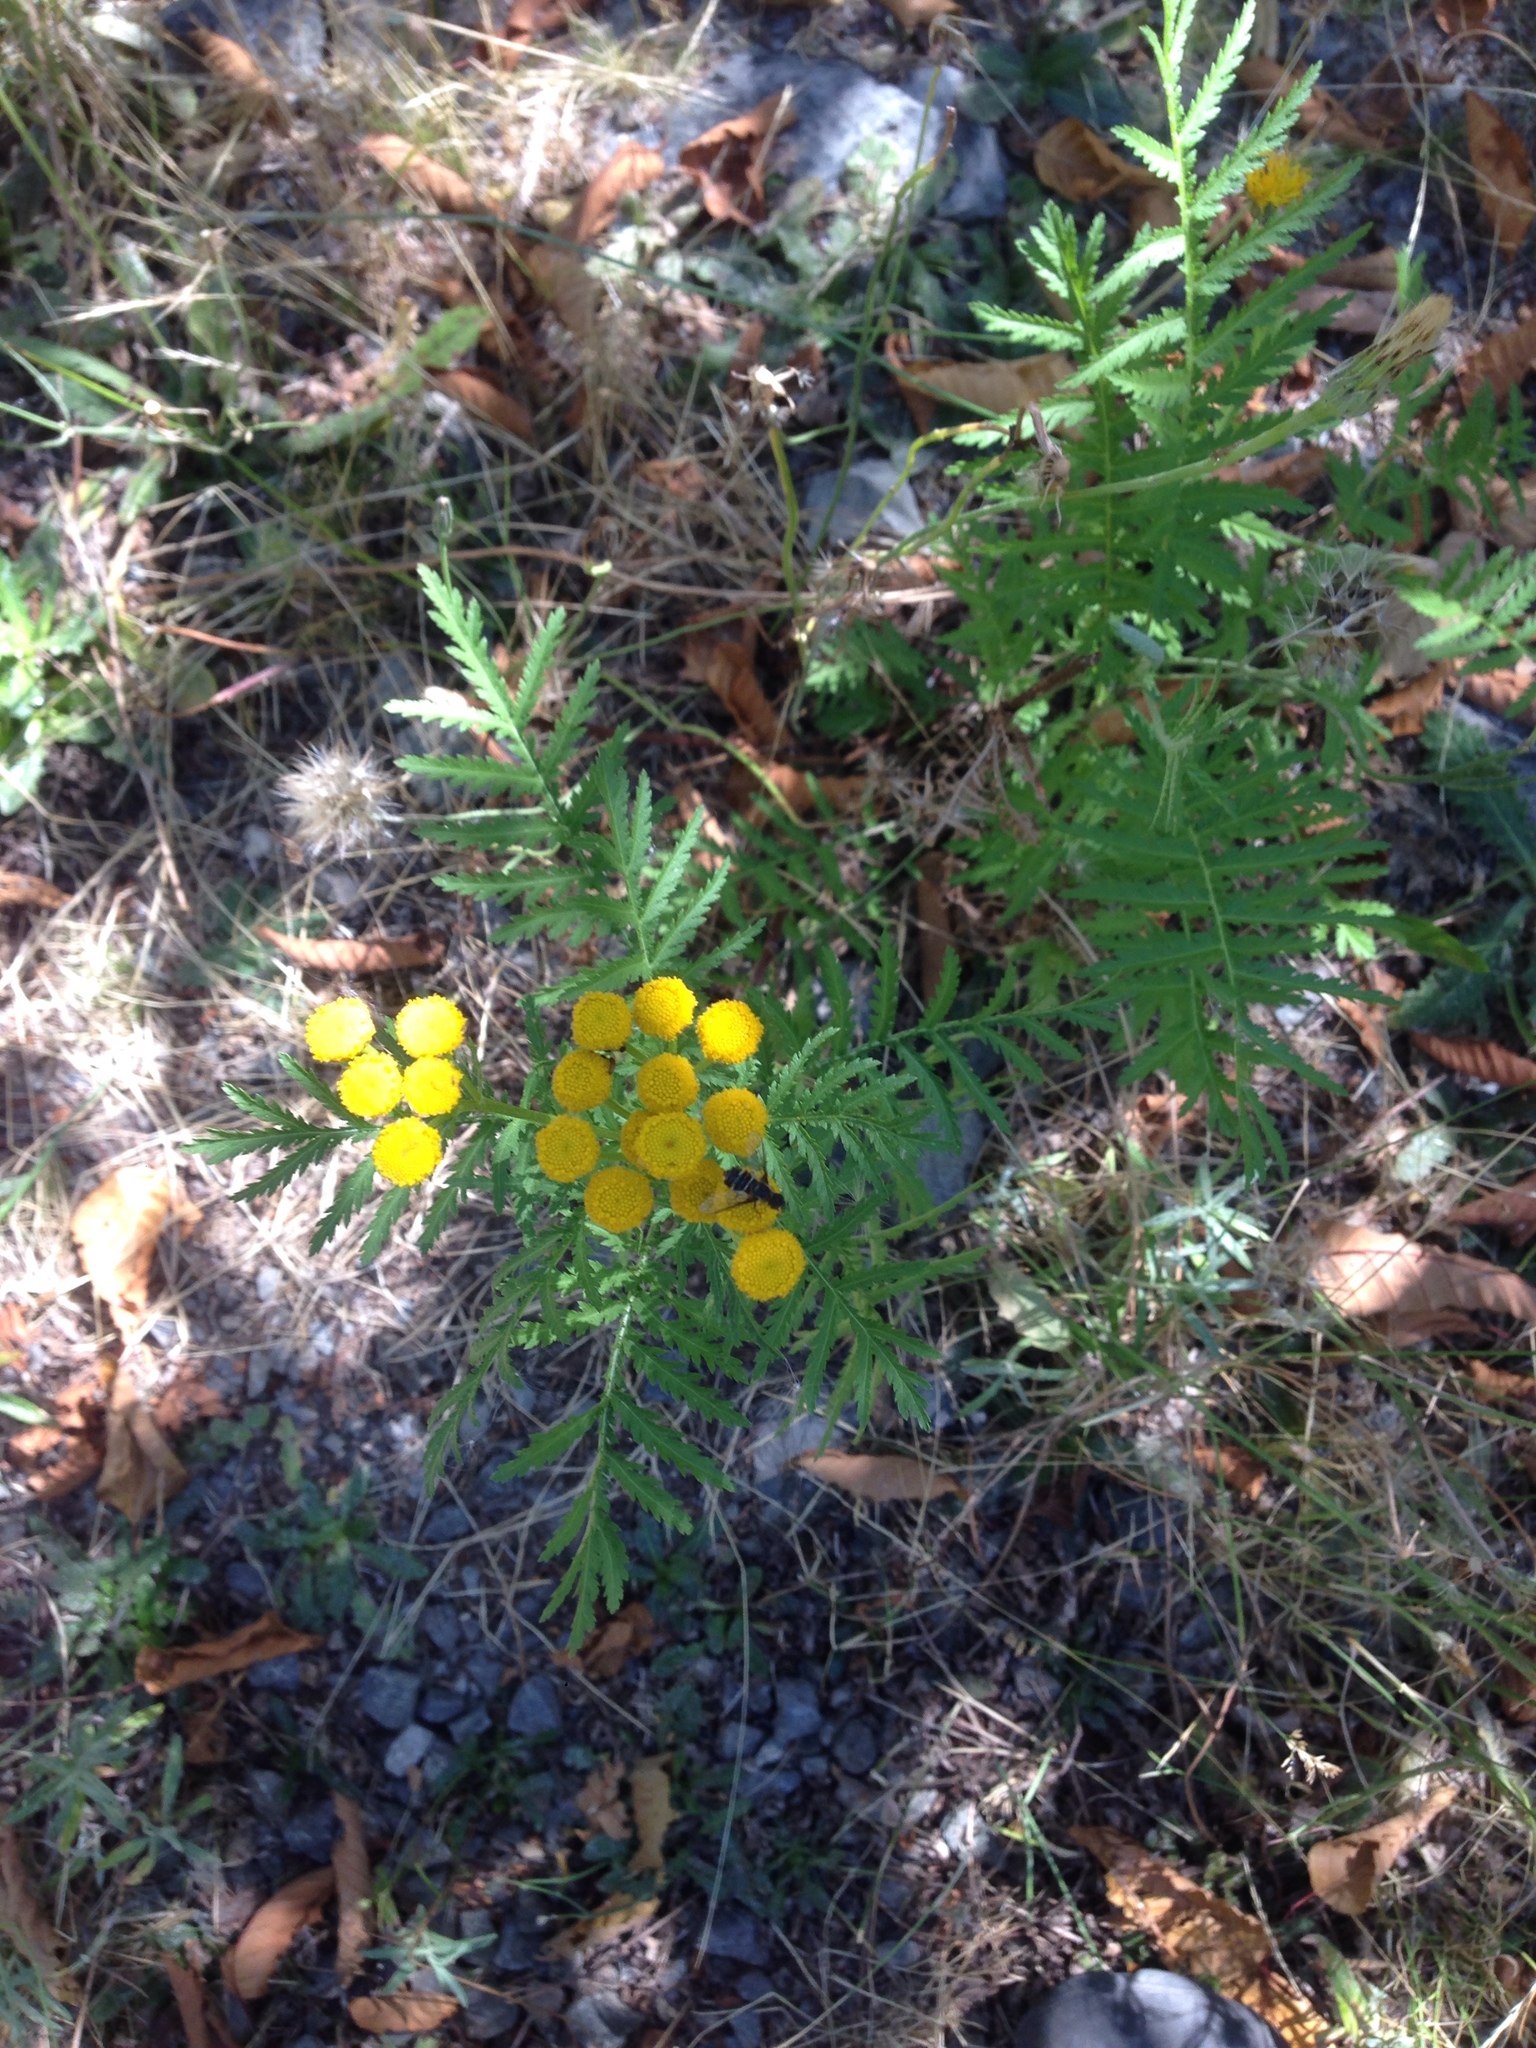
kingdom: Plantae
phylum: Tracheophyta
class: Magnoliopsida
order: Asterales
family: Asteraceae
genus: Tanacetum
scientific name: Tanacetum vulgare
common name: Common tansy
